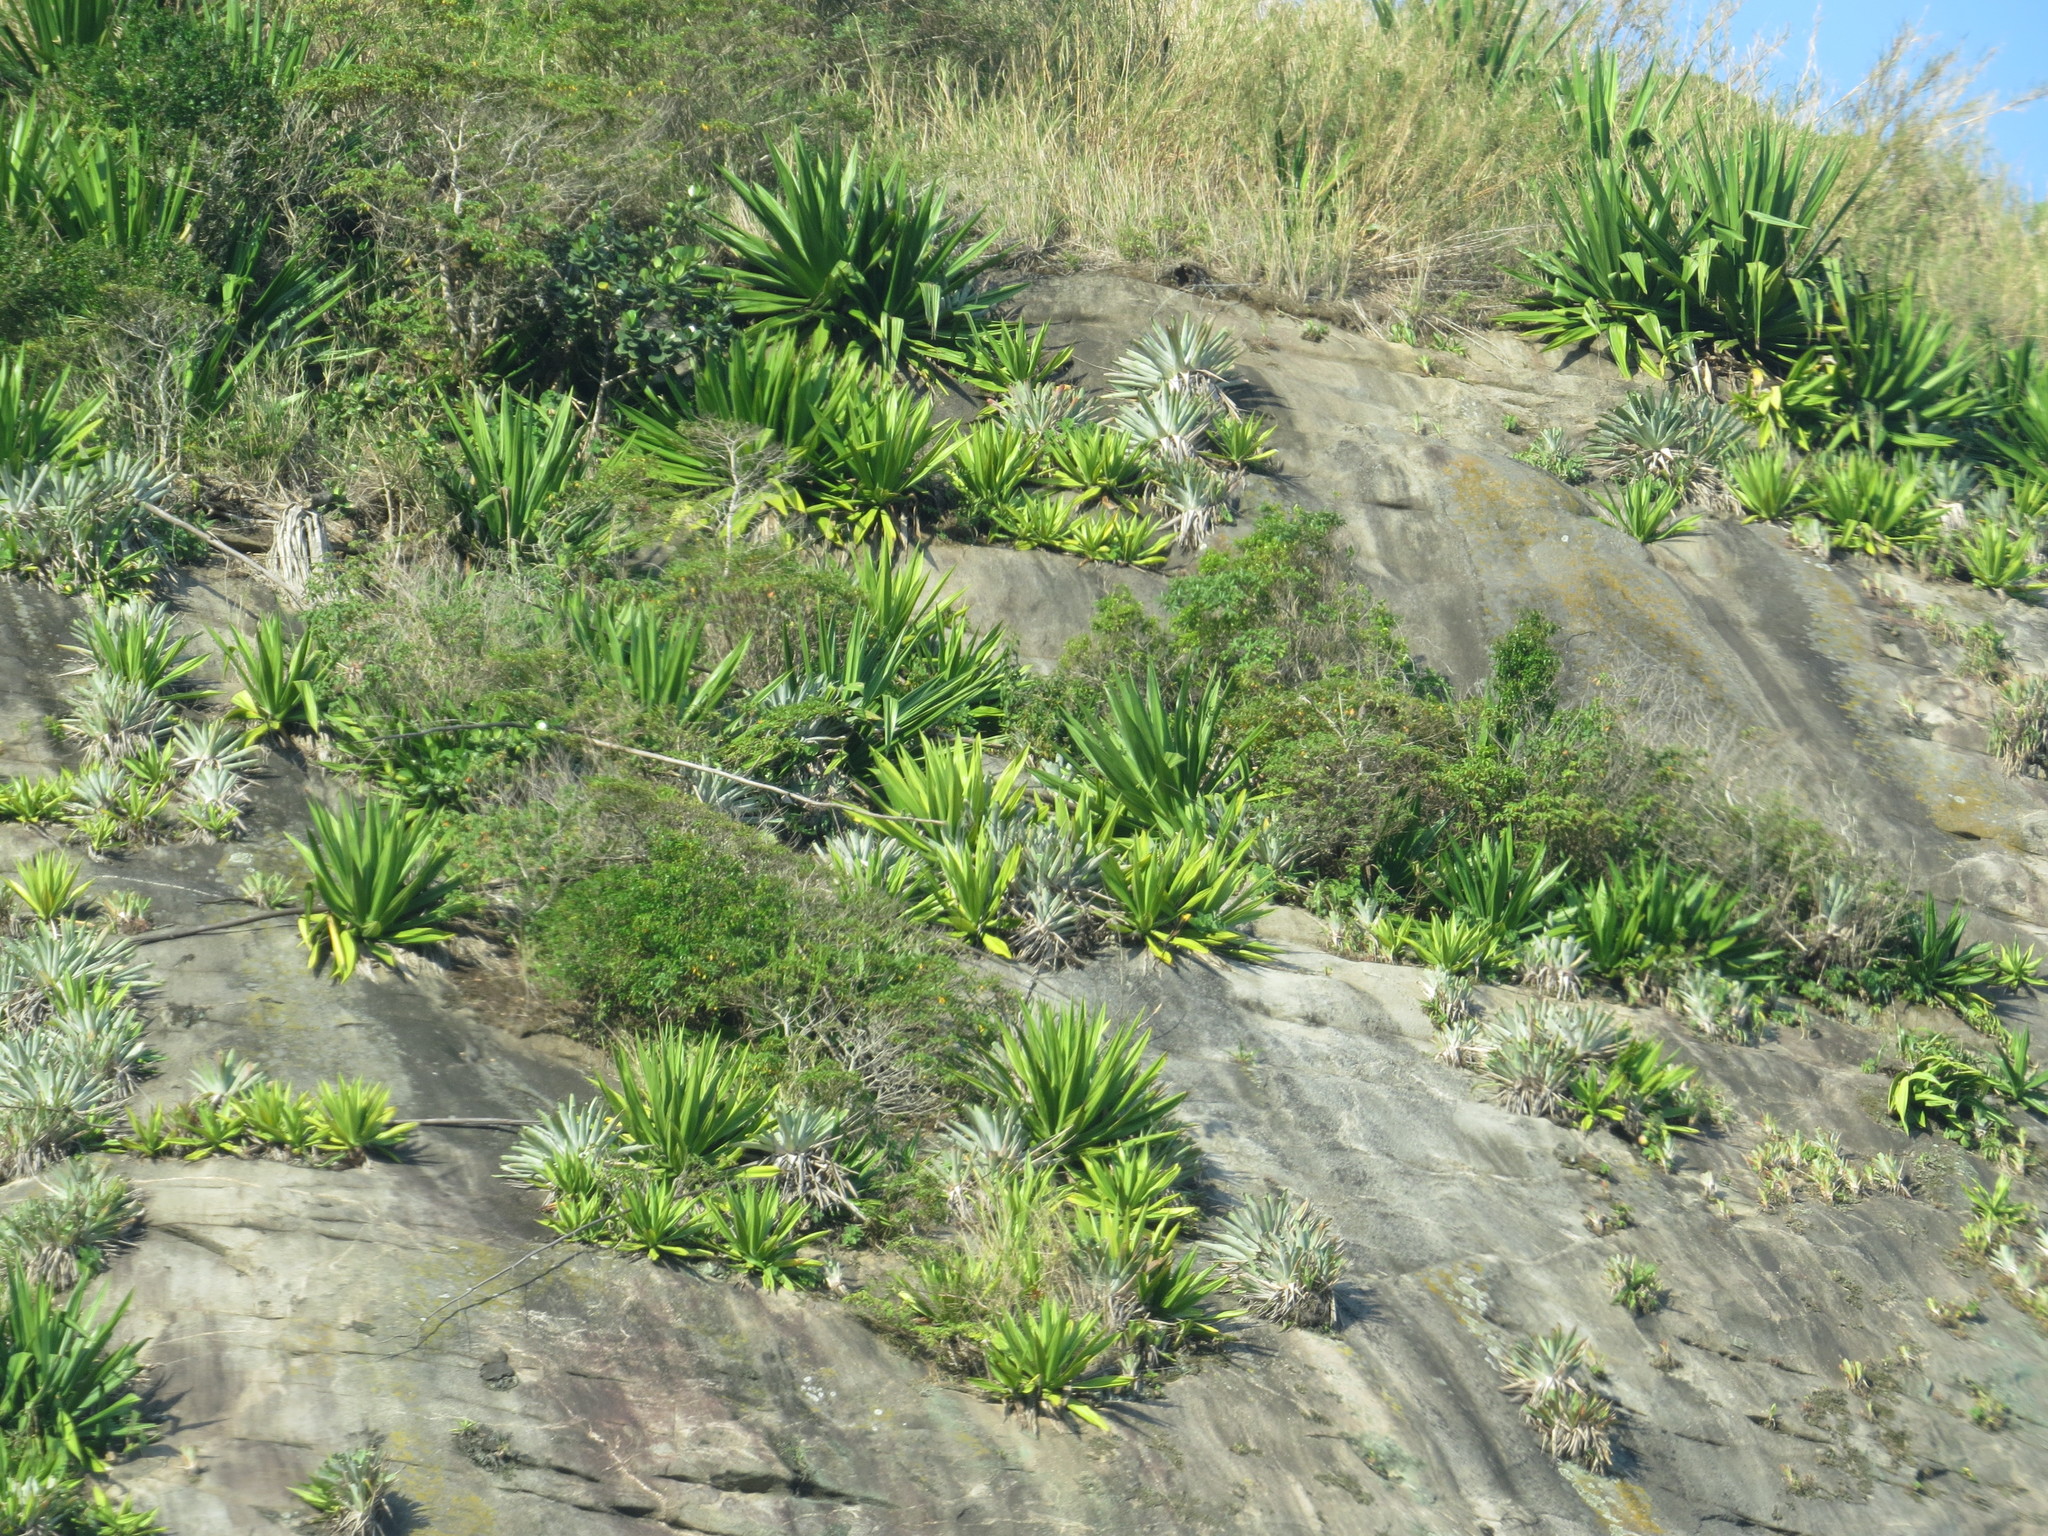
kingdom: Plantae
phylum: Tracheophyta
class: Liliopsida
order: Asparagales
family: Asparagaceae
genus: Furcraea
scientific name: Furcraea foetida
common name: Mauritius hemp
